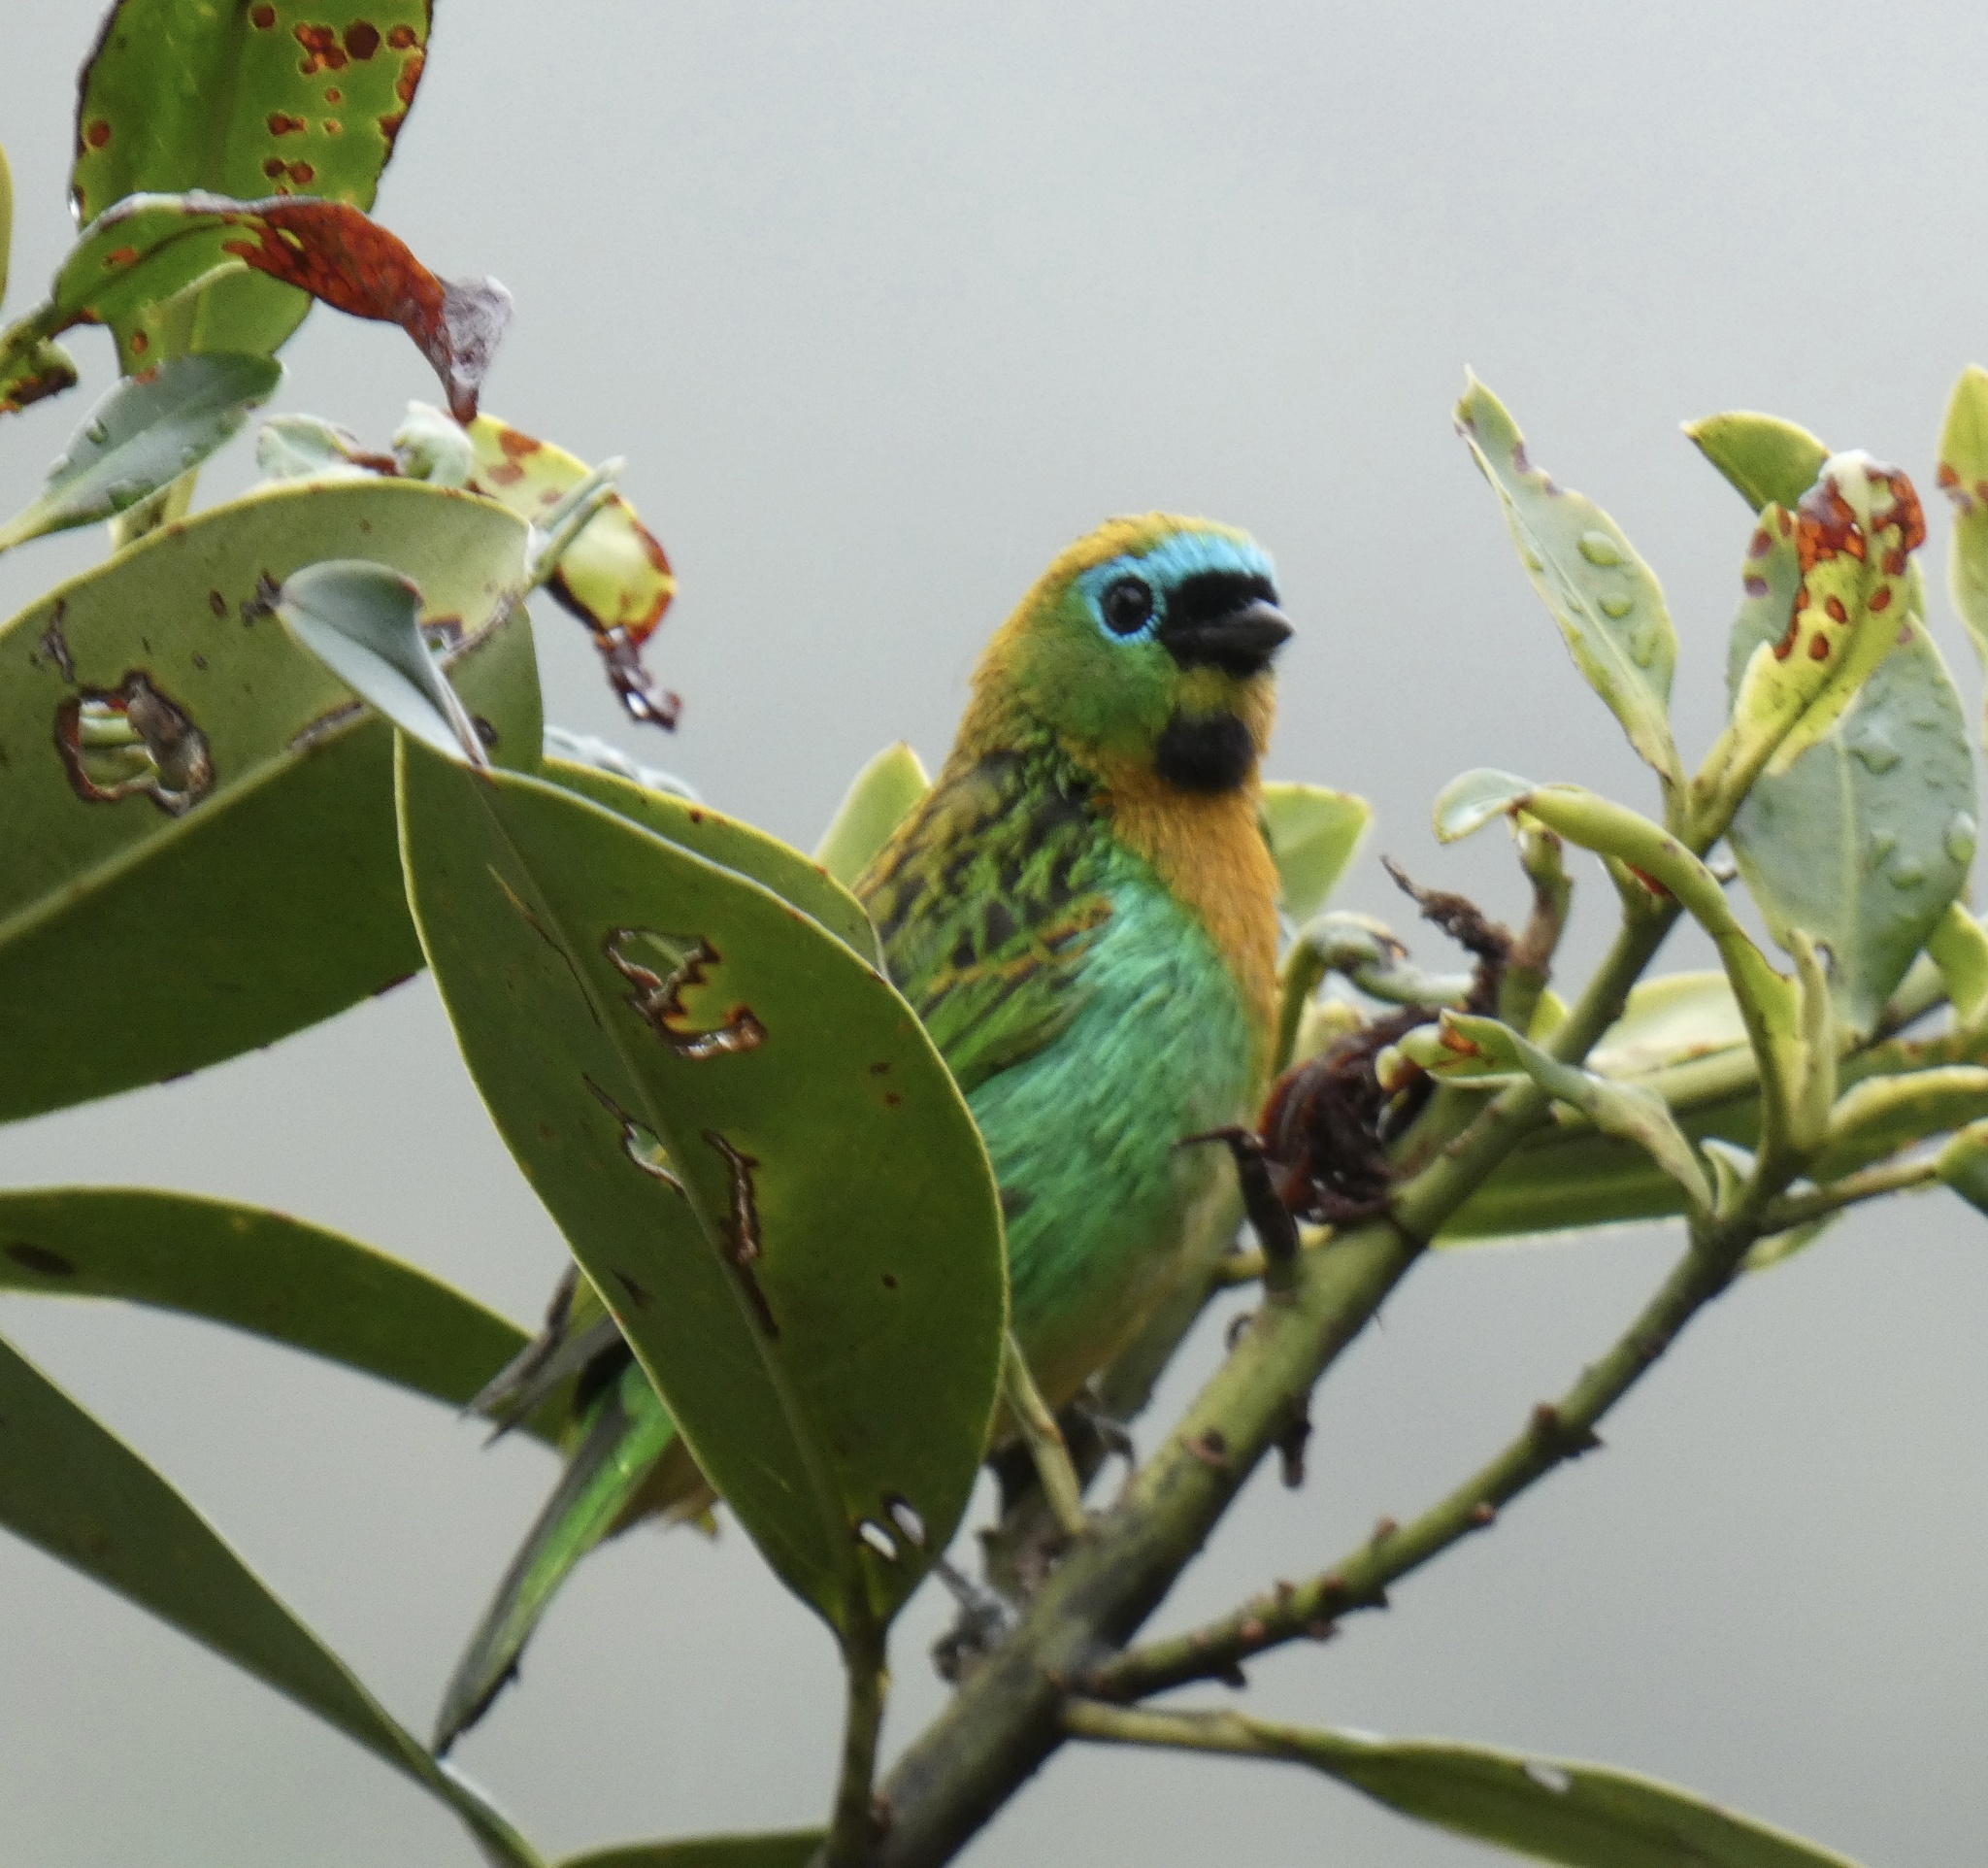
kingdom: Animalia
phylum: Chordata
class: Aves
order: Passeriformes
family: Thraupidae
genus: Tangara
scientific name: Tangara desmaresti
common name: Brassy-breasted tanager
